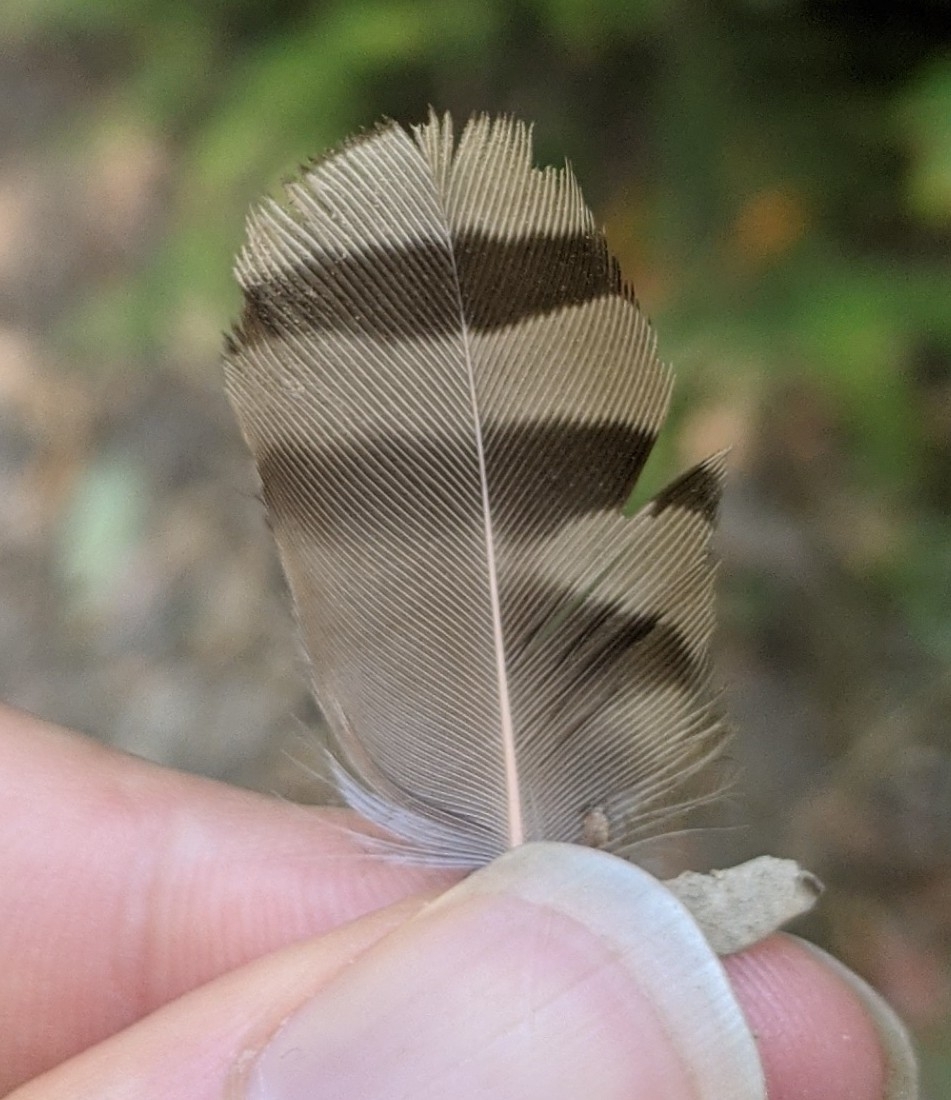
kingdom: Animalia
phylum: Chordata
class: Aves
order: Piciformes
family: Picidae
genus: Colaptes
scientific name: Colaptes auratus
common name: Northern flicker
